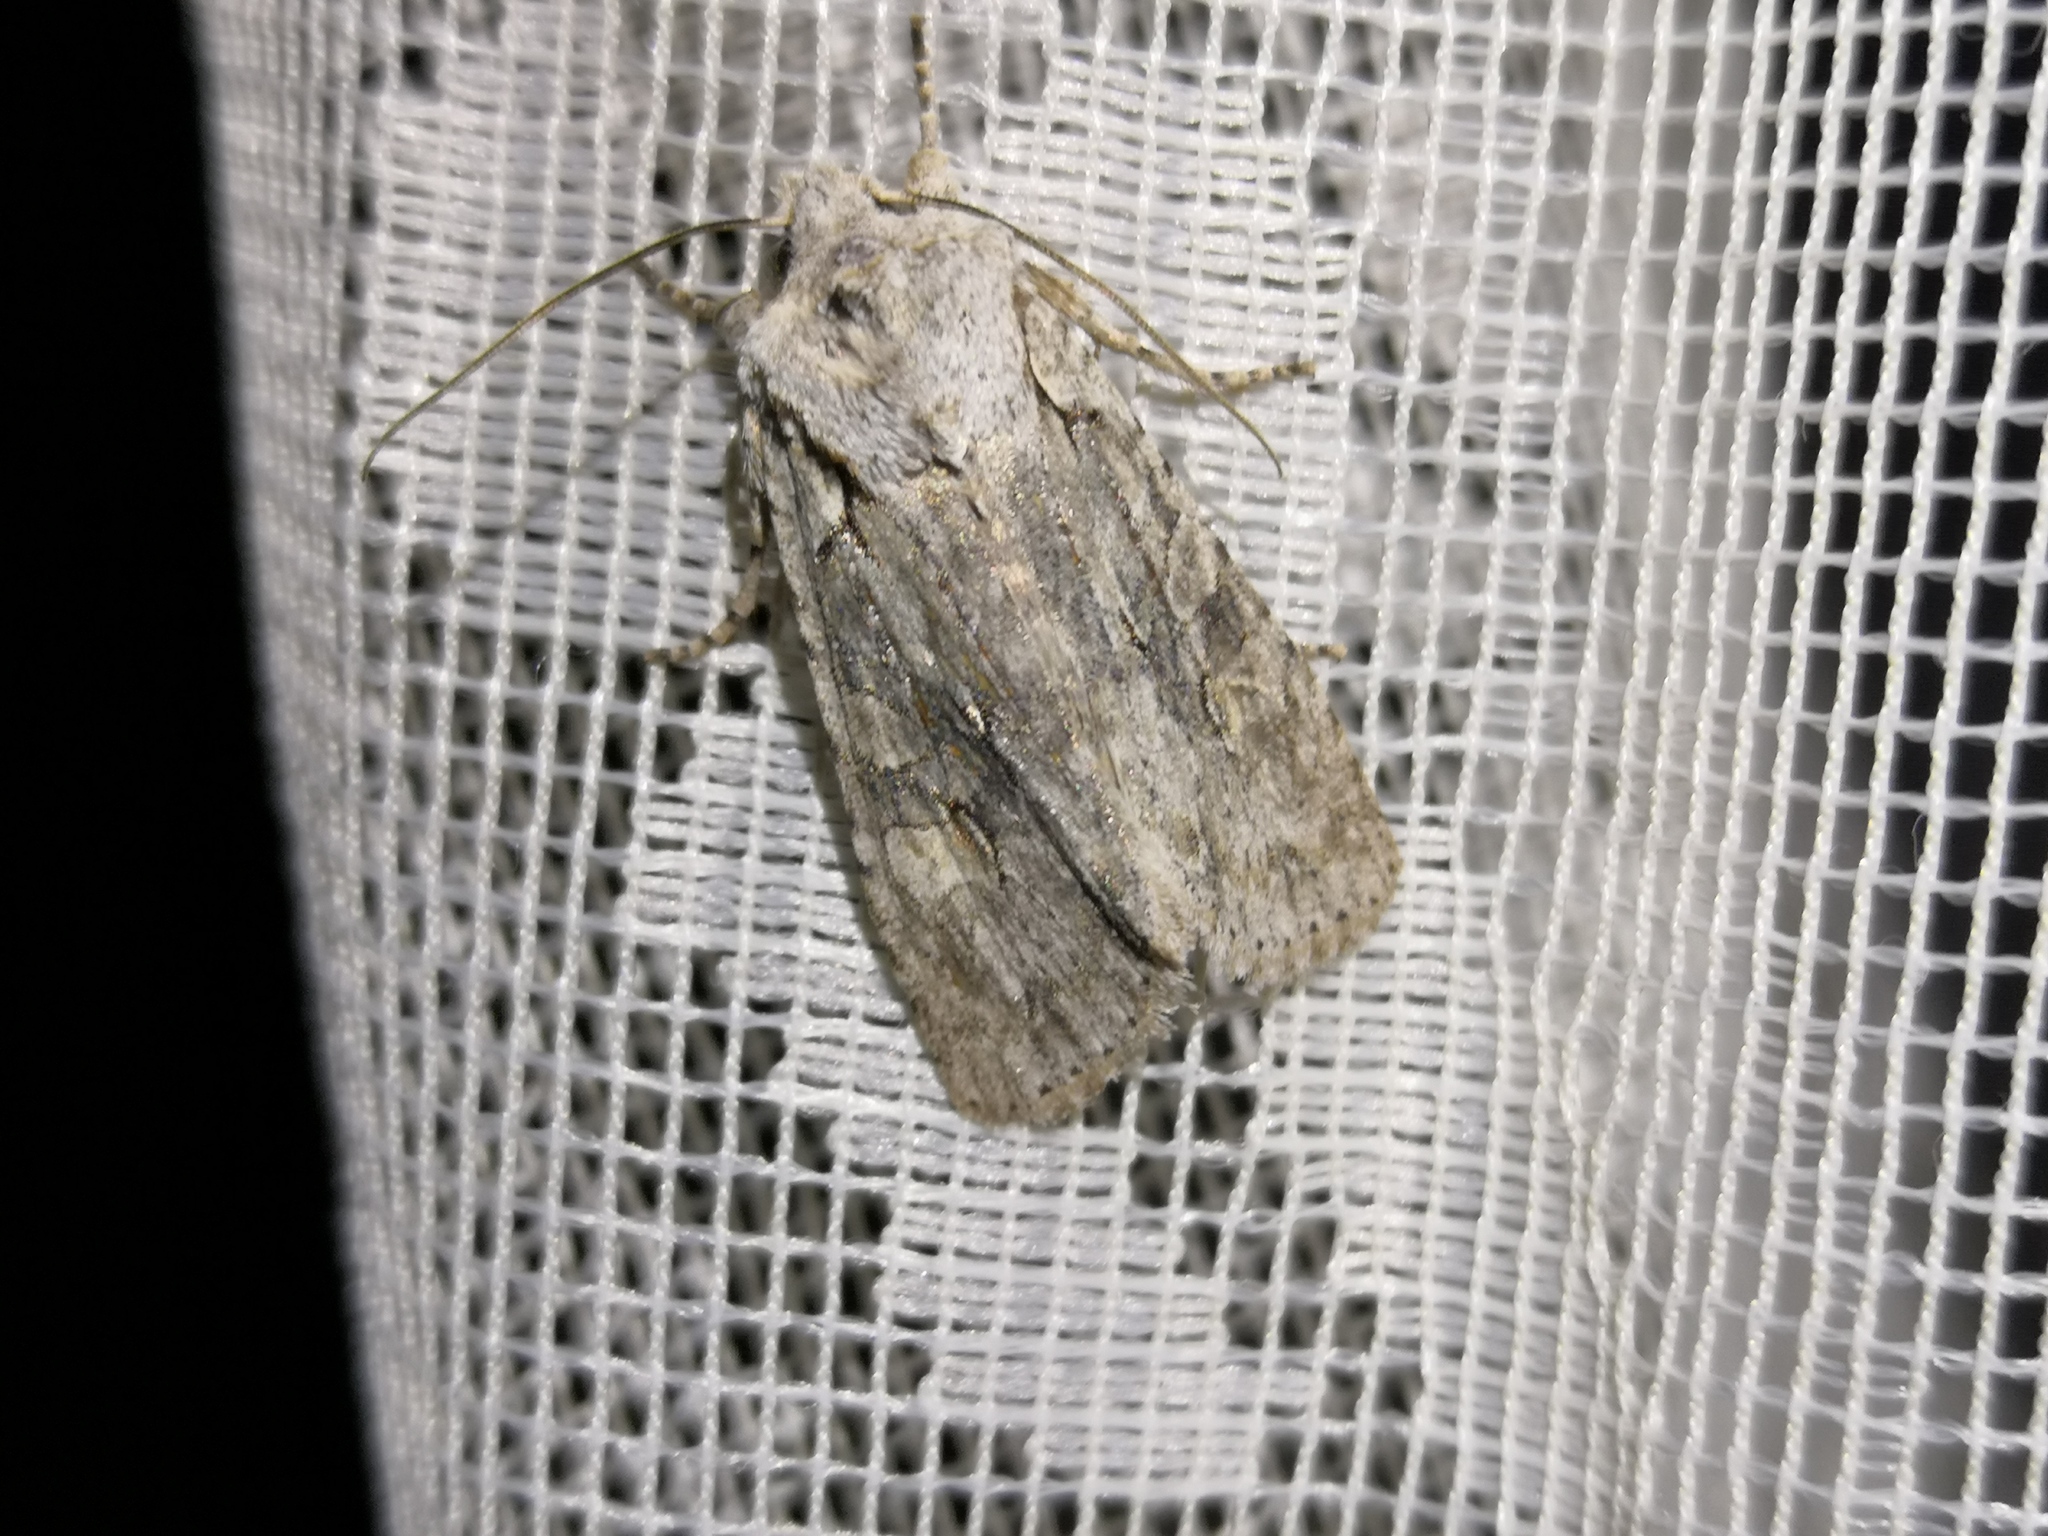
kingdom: Animalia
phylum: Arthropoda
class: Insecta
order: Lepidoptera
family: Noctuidae
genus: Lithophane
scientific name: Lithophane ornitopus
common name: Grey shoulder-knot
